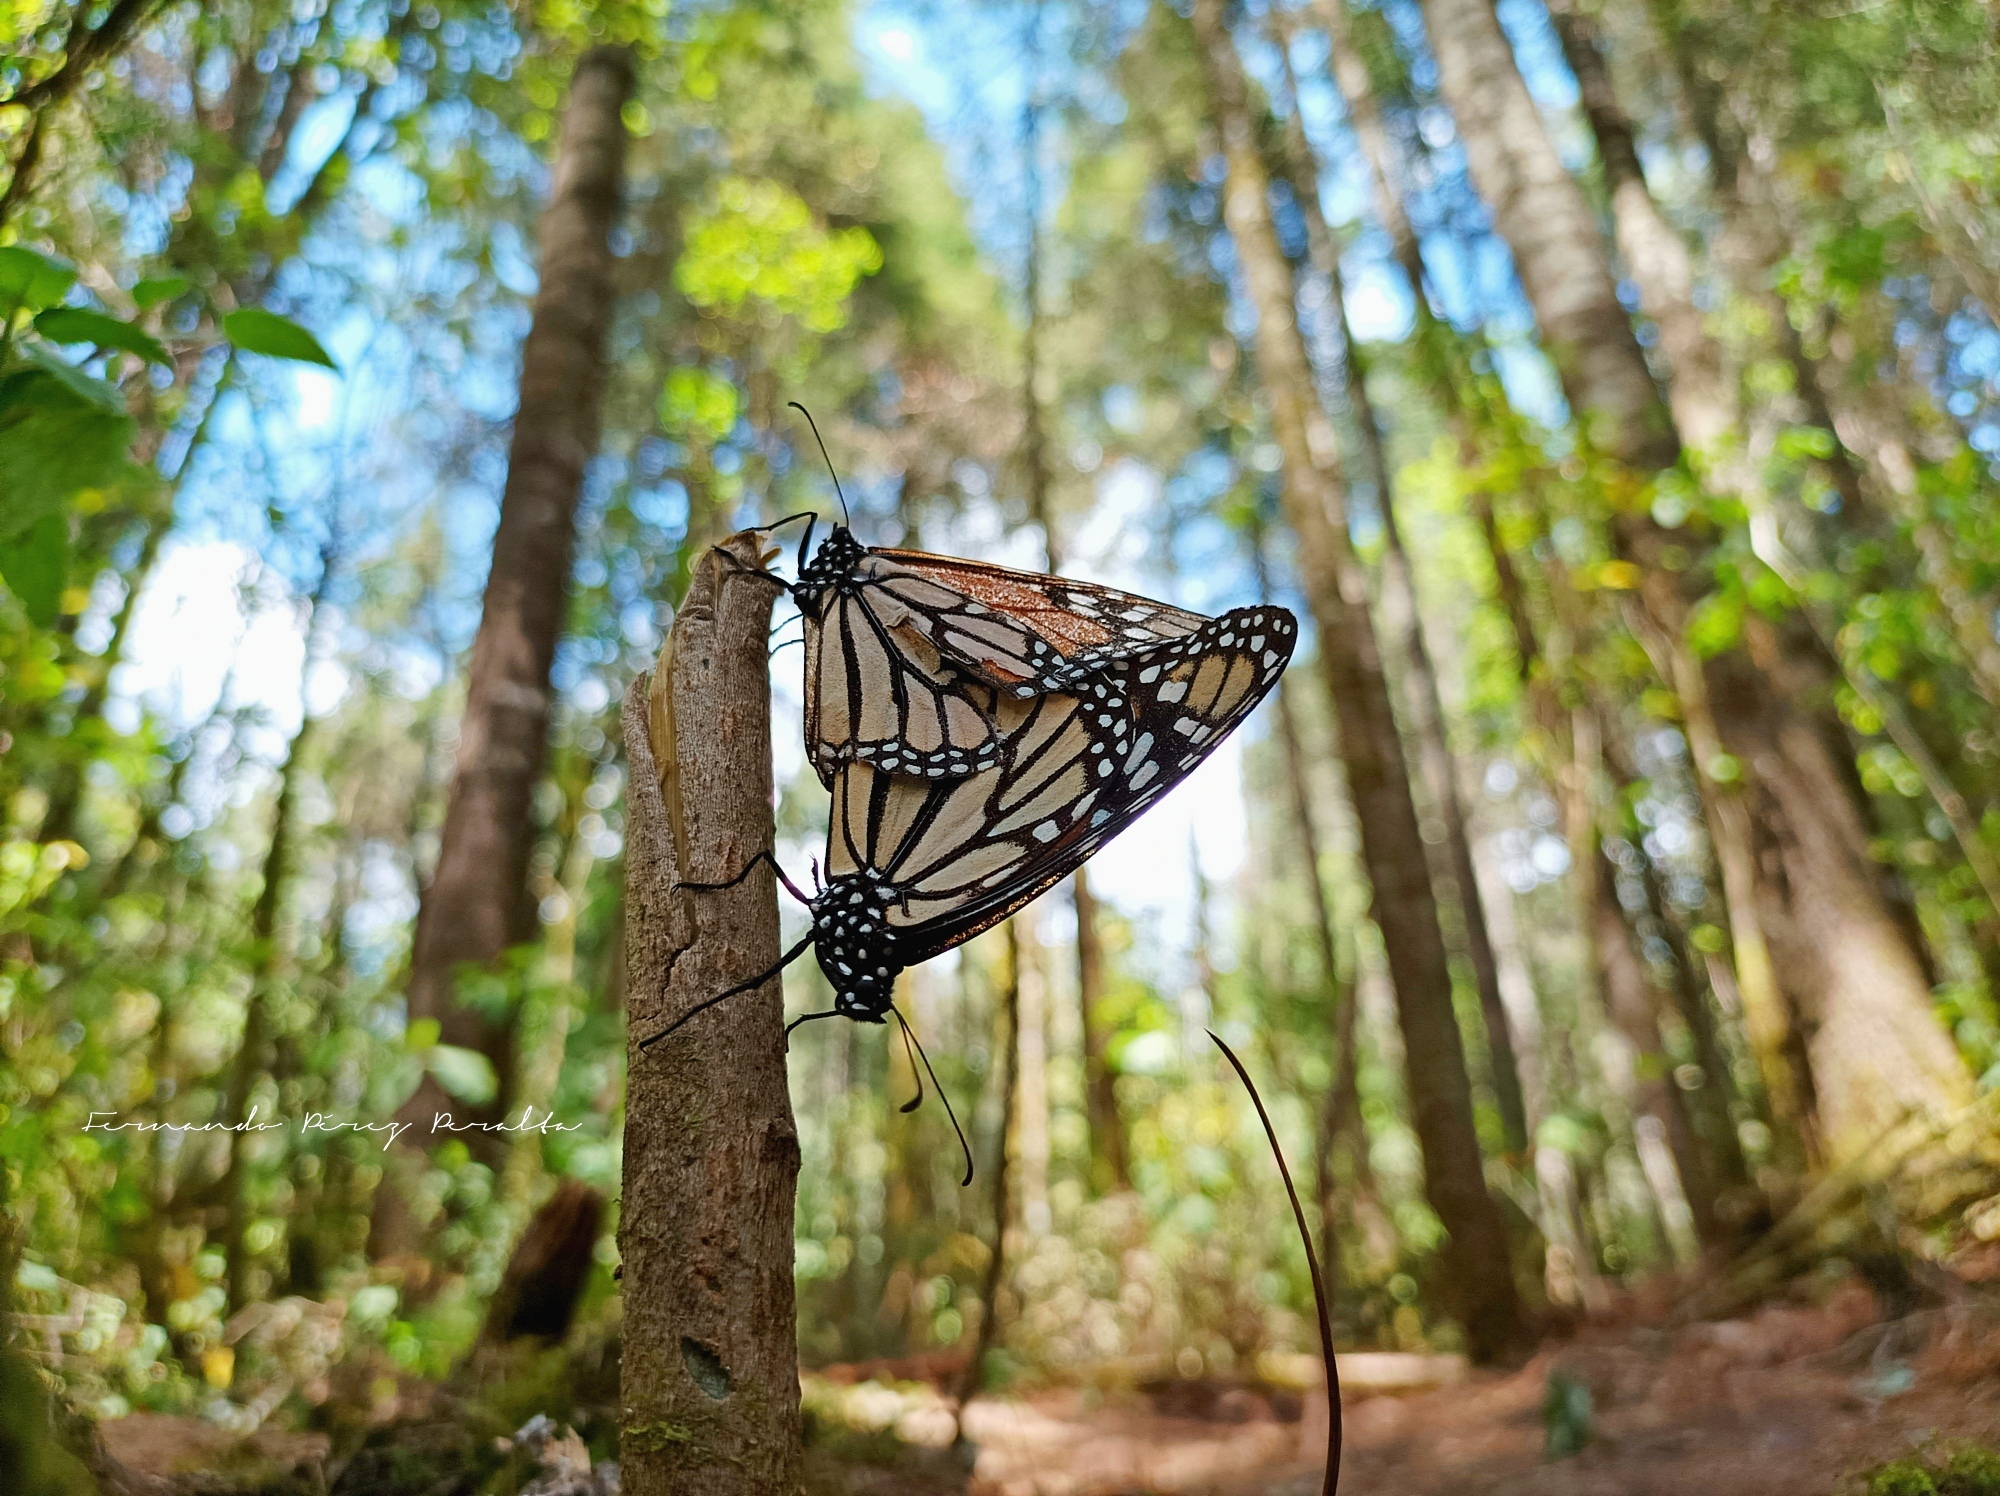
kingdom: Animalia
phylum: Arthropoda
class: Insecta
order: Lepidoptera
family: Nymphalidae
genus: Danaus
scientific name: Danaus plexippus
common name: Monarch
